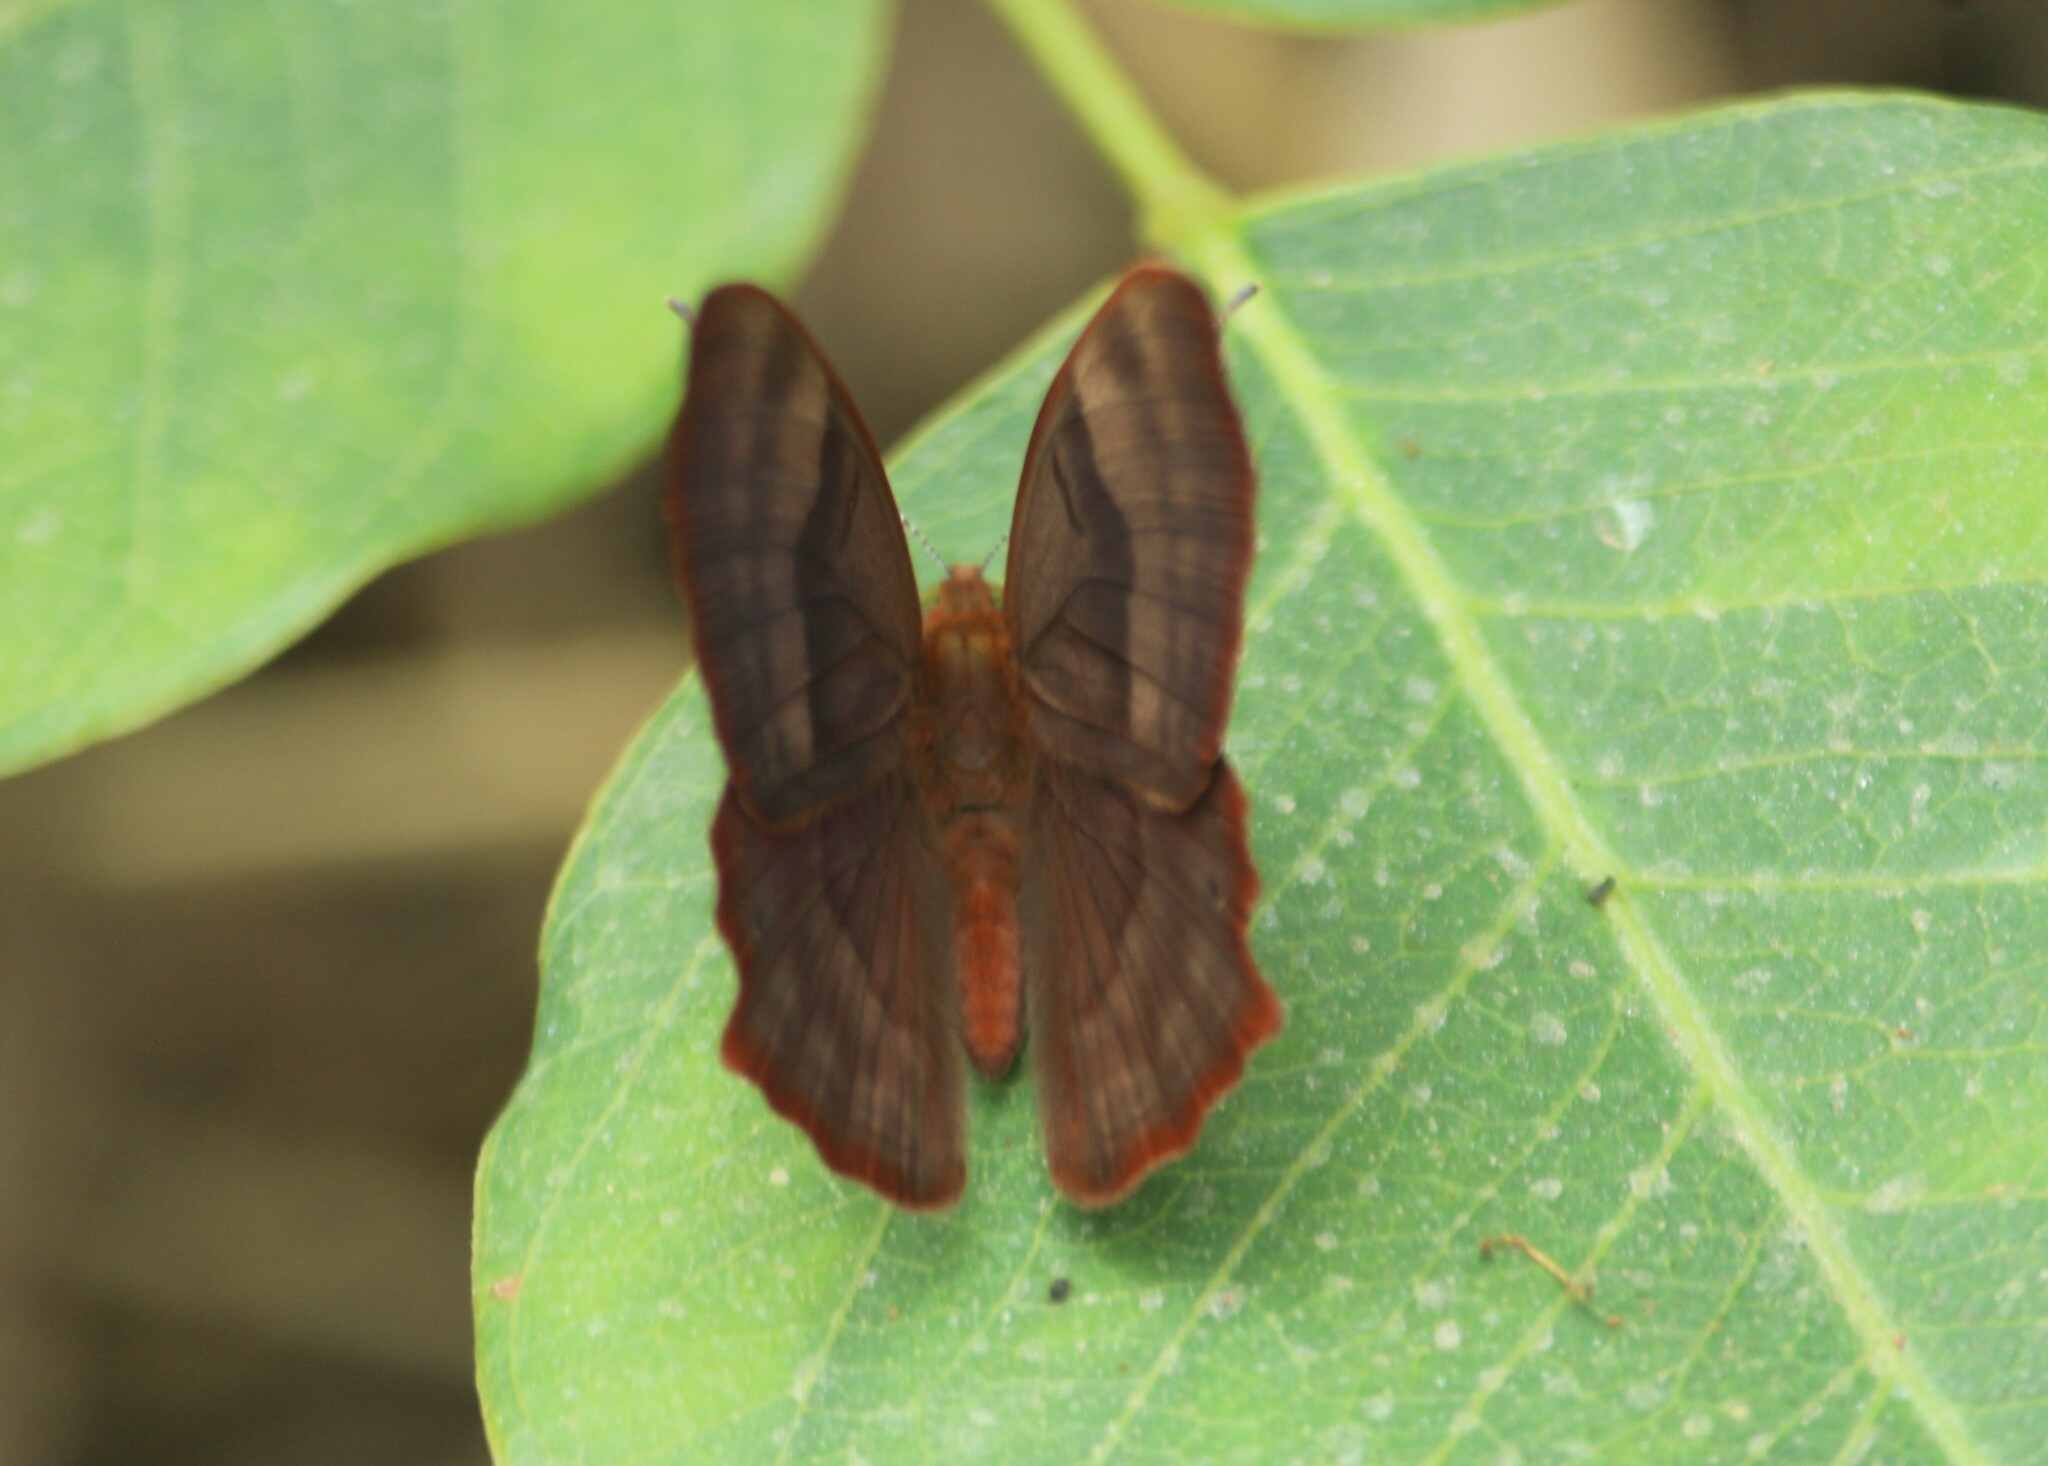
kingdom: Animalia
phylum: Arthropoda
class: Insecta
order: Lepidoptera
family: Lycaenidae
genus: Abisara
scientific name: Abisara bifasciata
